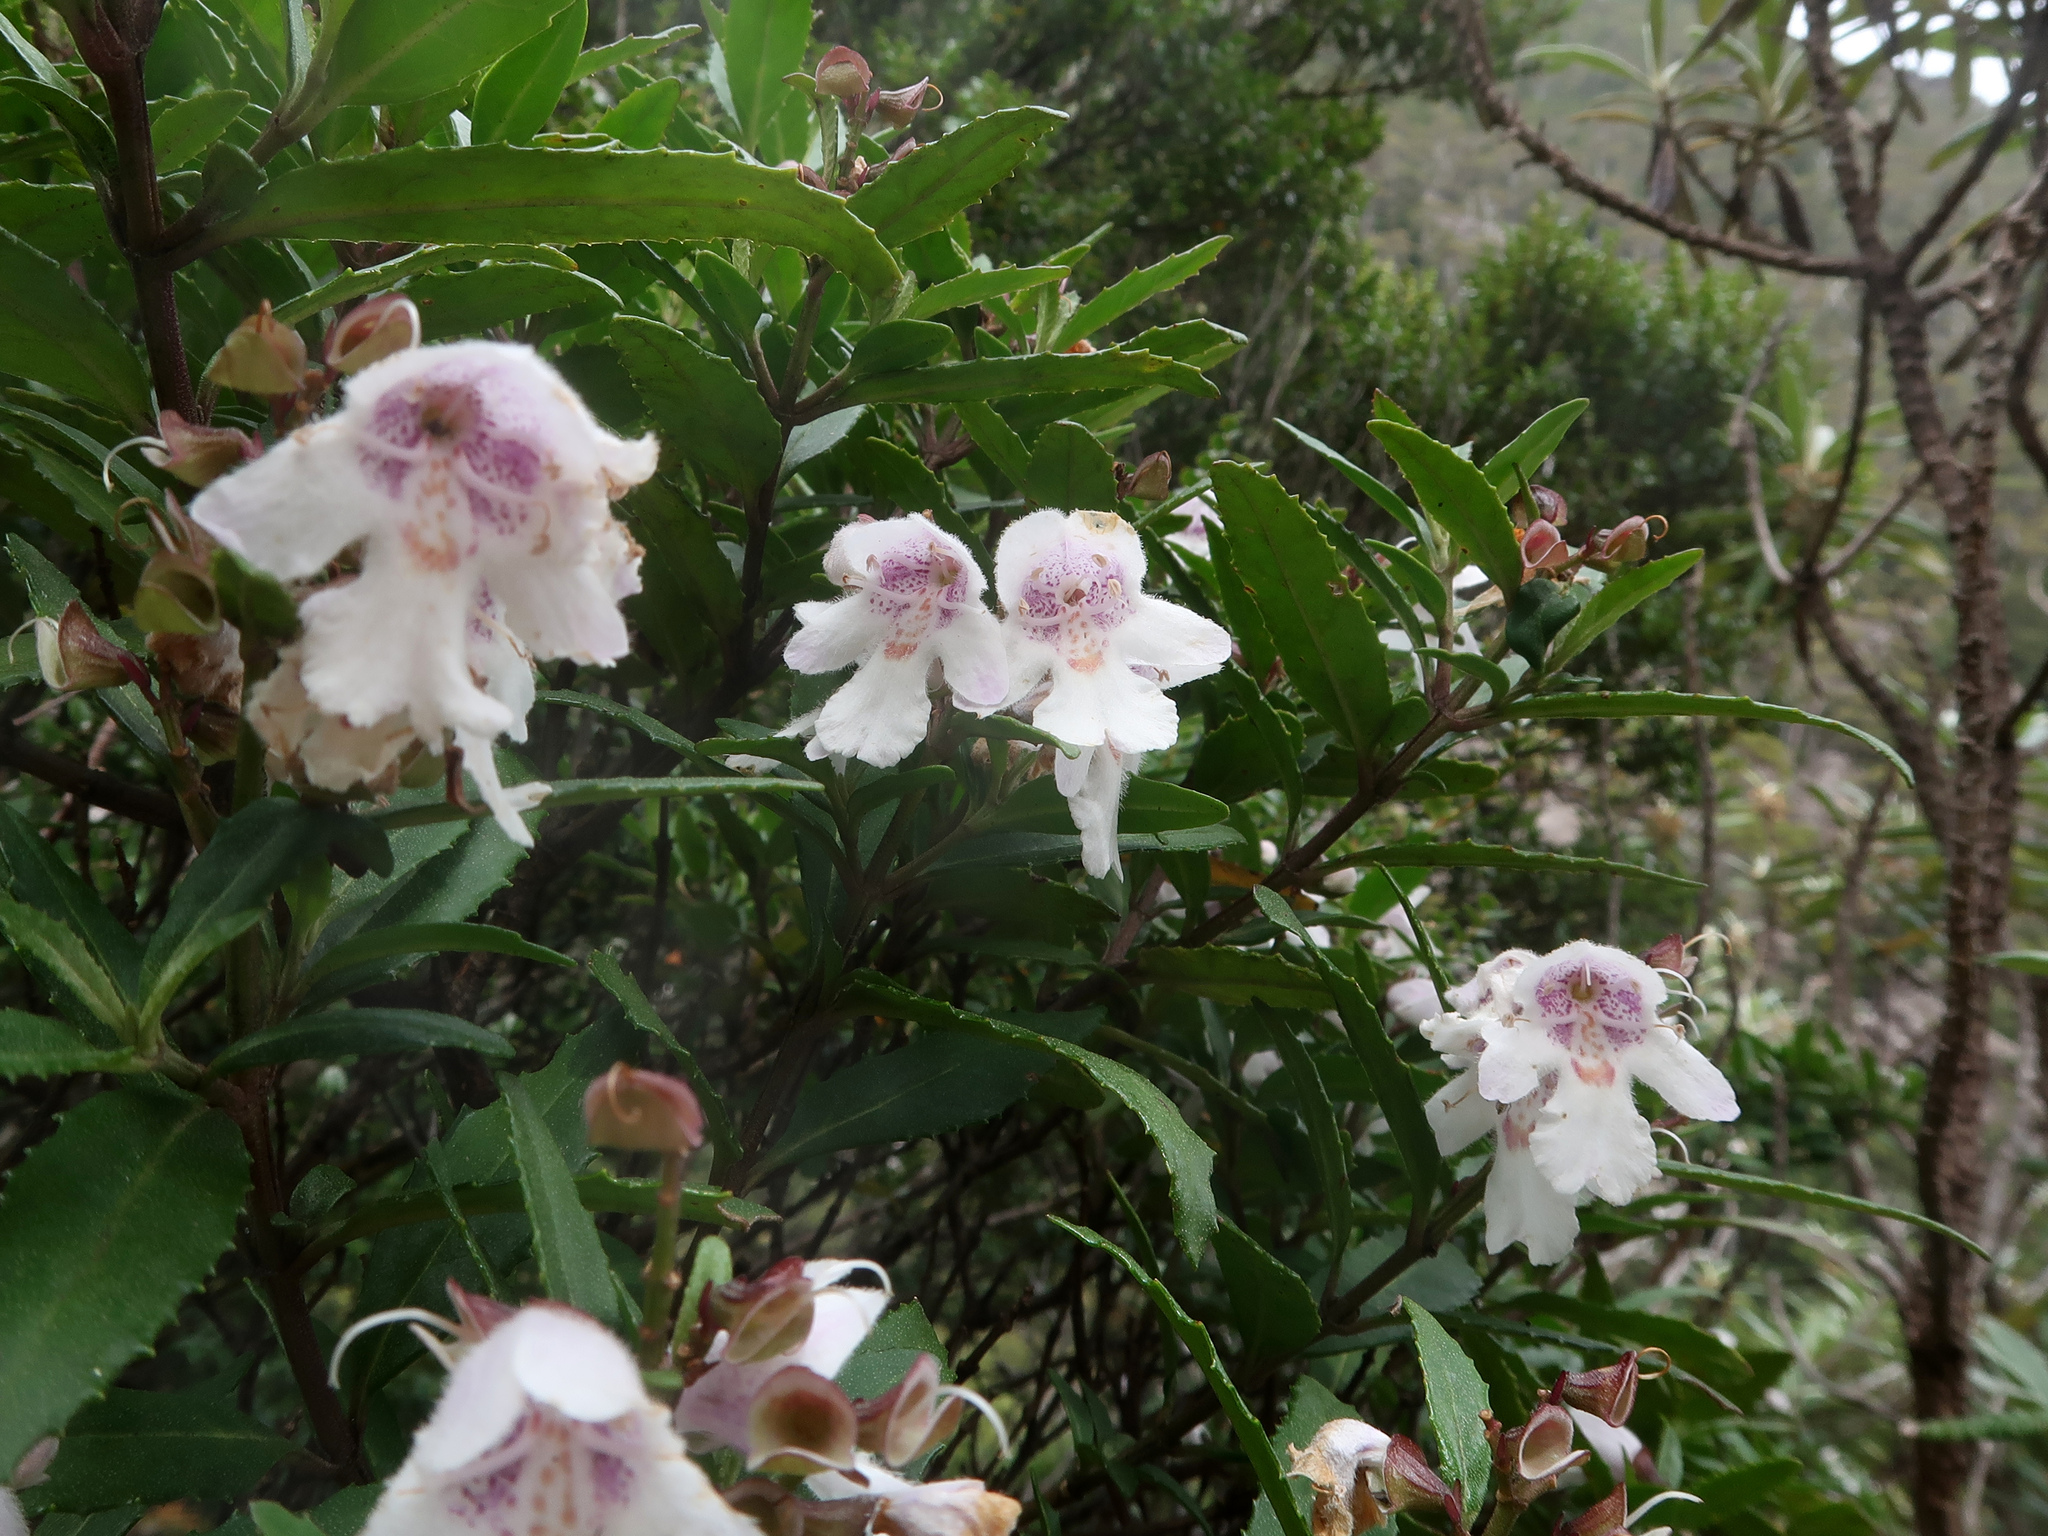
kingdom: Plantae
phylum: Tracheophyta
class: Magnoliopsida
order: Lamiales
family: Lamiaceae
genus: Prostanthera
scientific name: Prostanthera lasianthos
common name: Mountain-lilac
